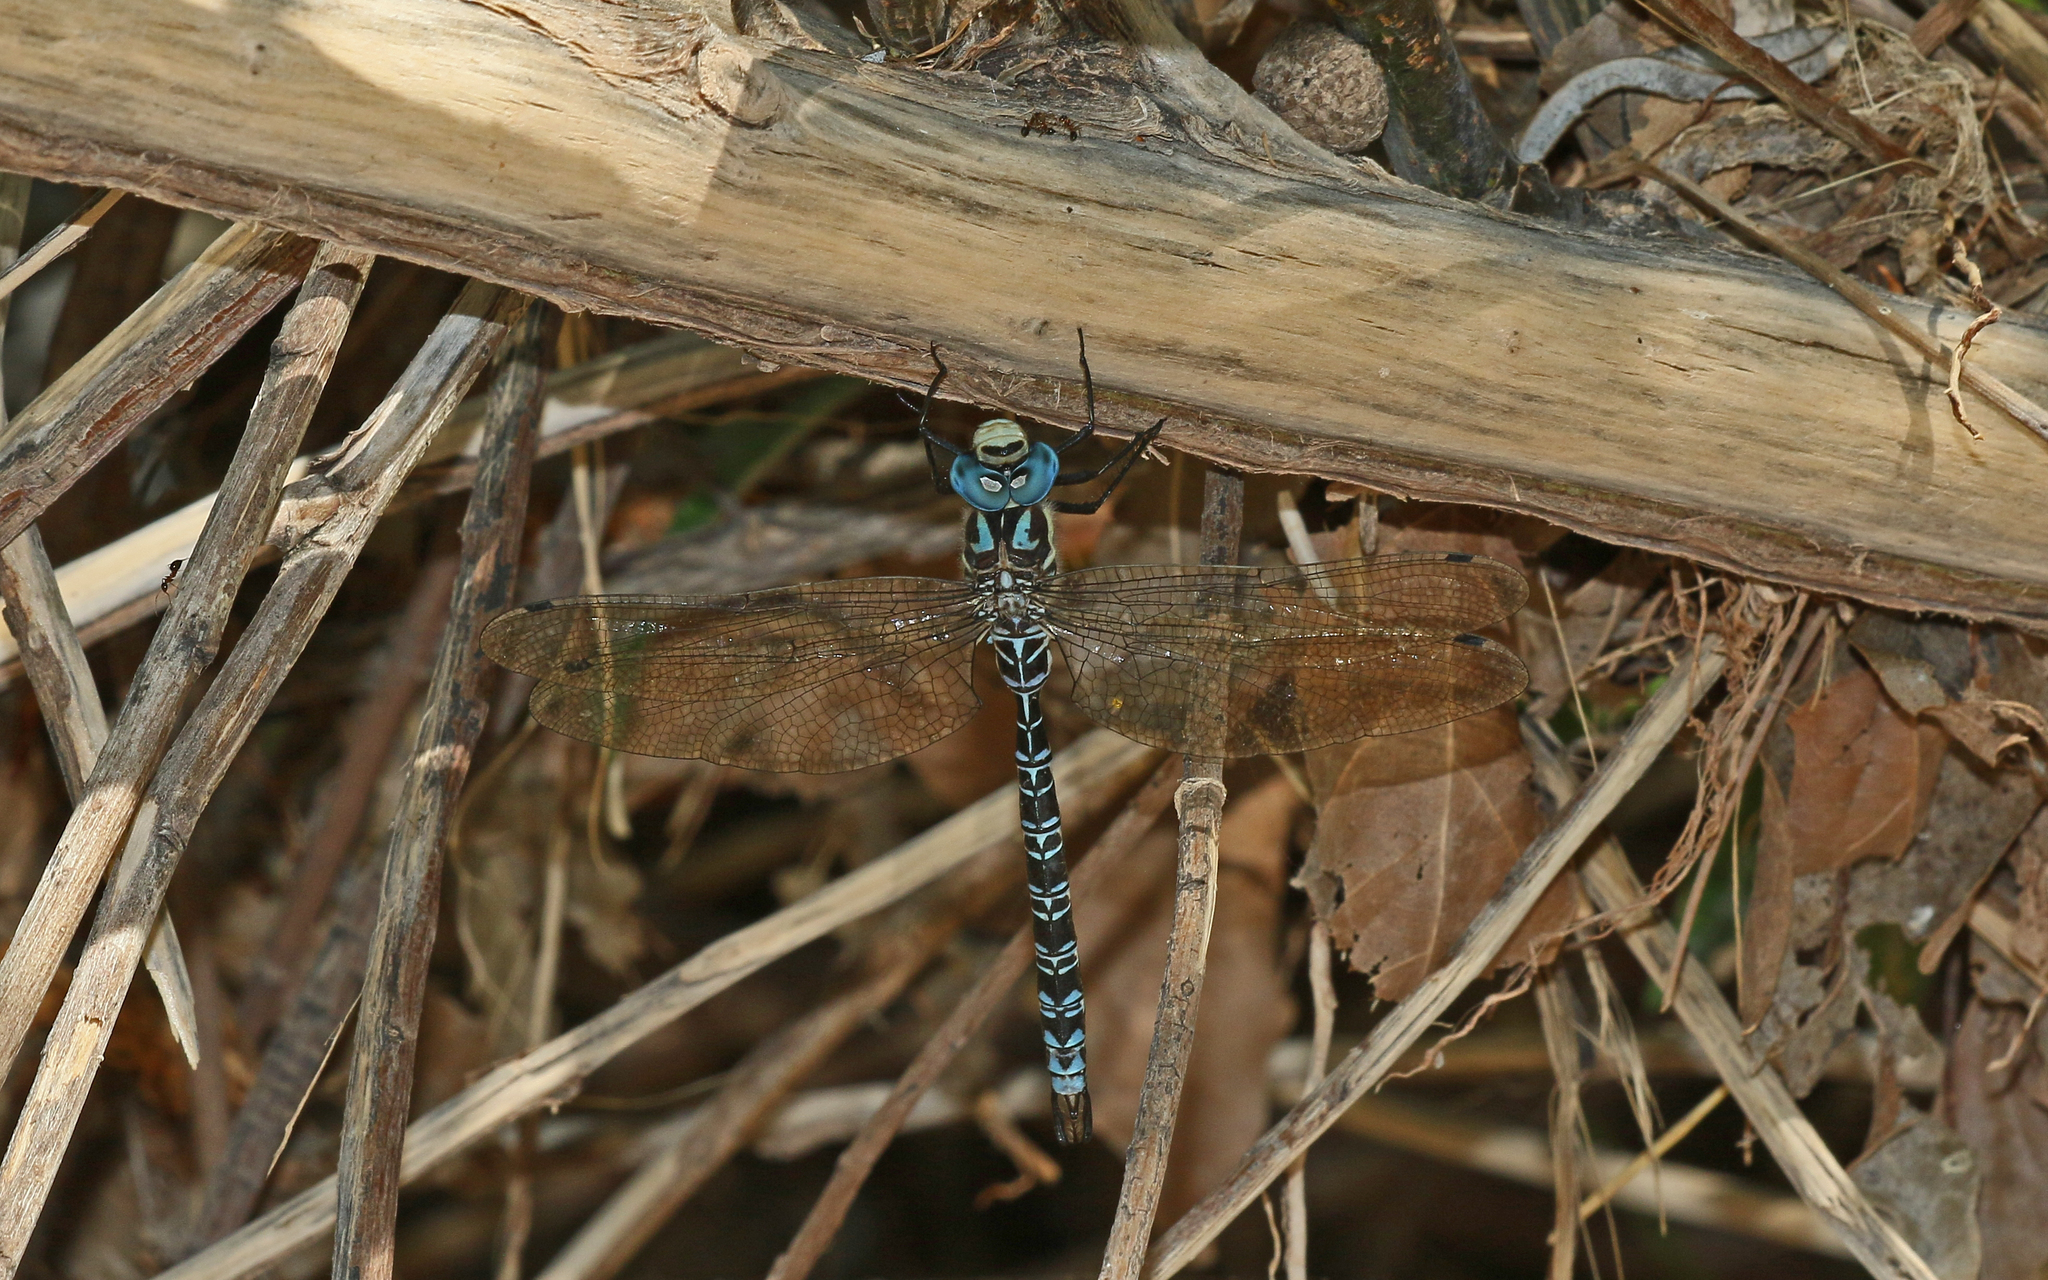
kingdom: Animalia
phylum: Arthropoda
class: Insecta
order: Odonata
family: Aeshnidae
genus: Caliaeschna
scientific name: Caliaeschna microstigma
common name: Eastern spectre
